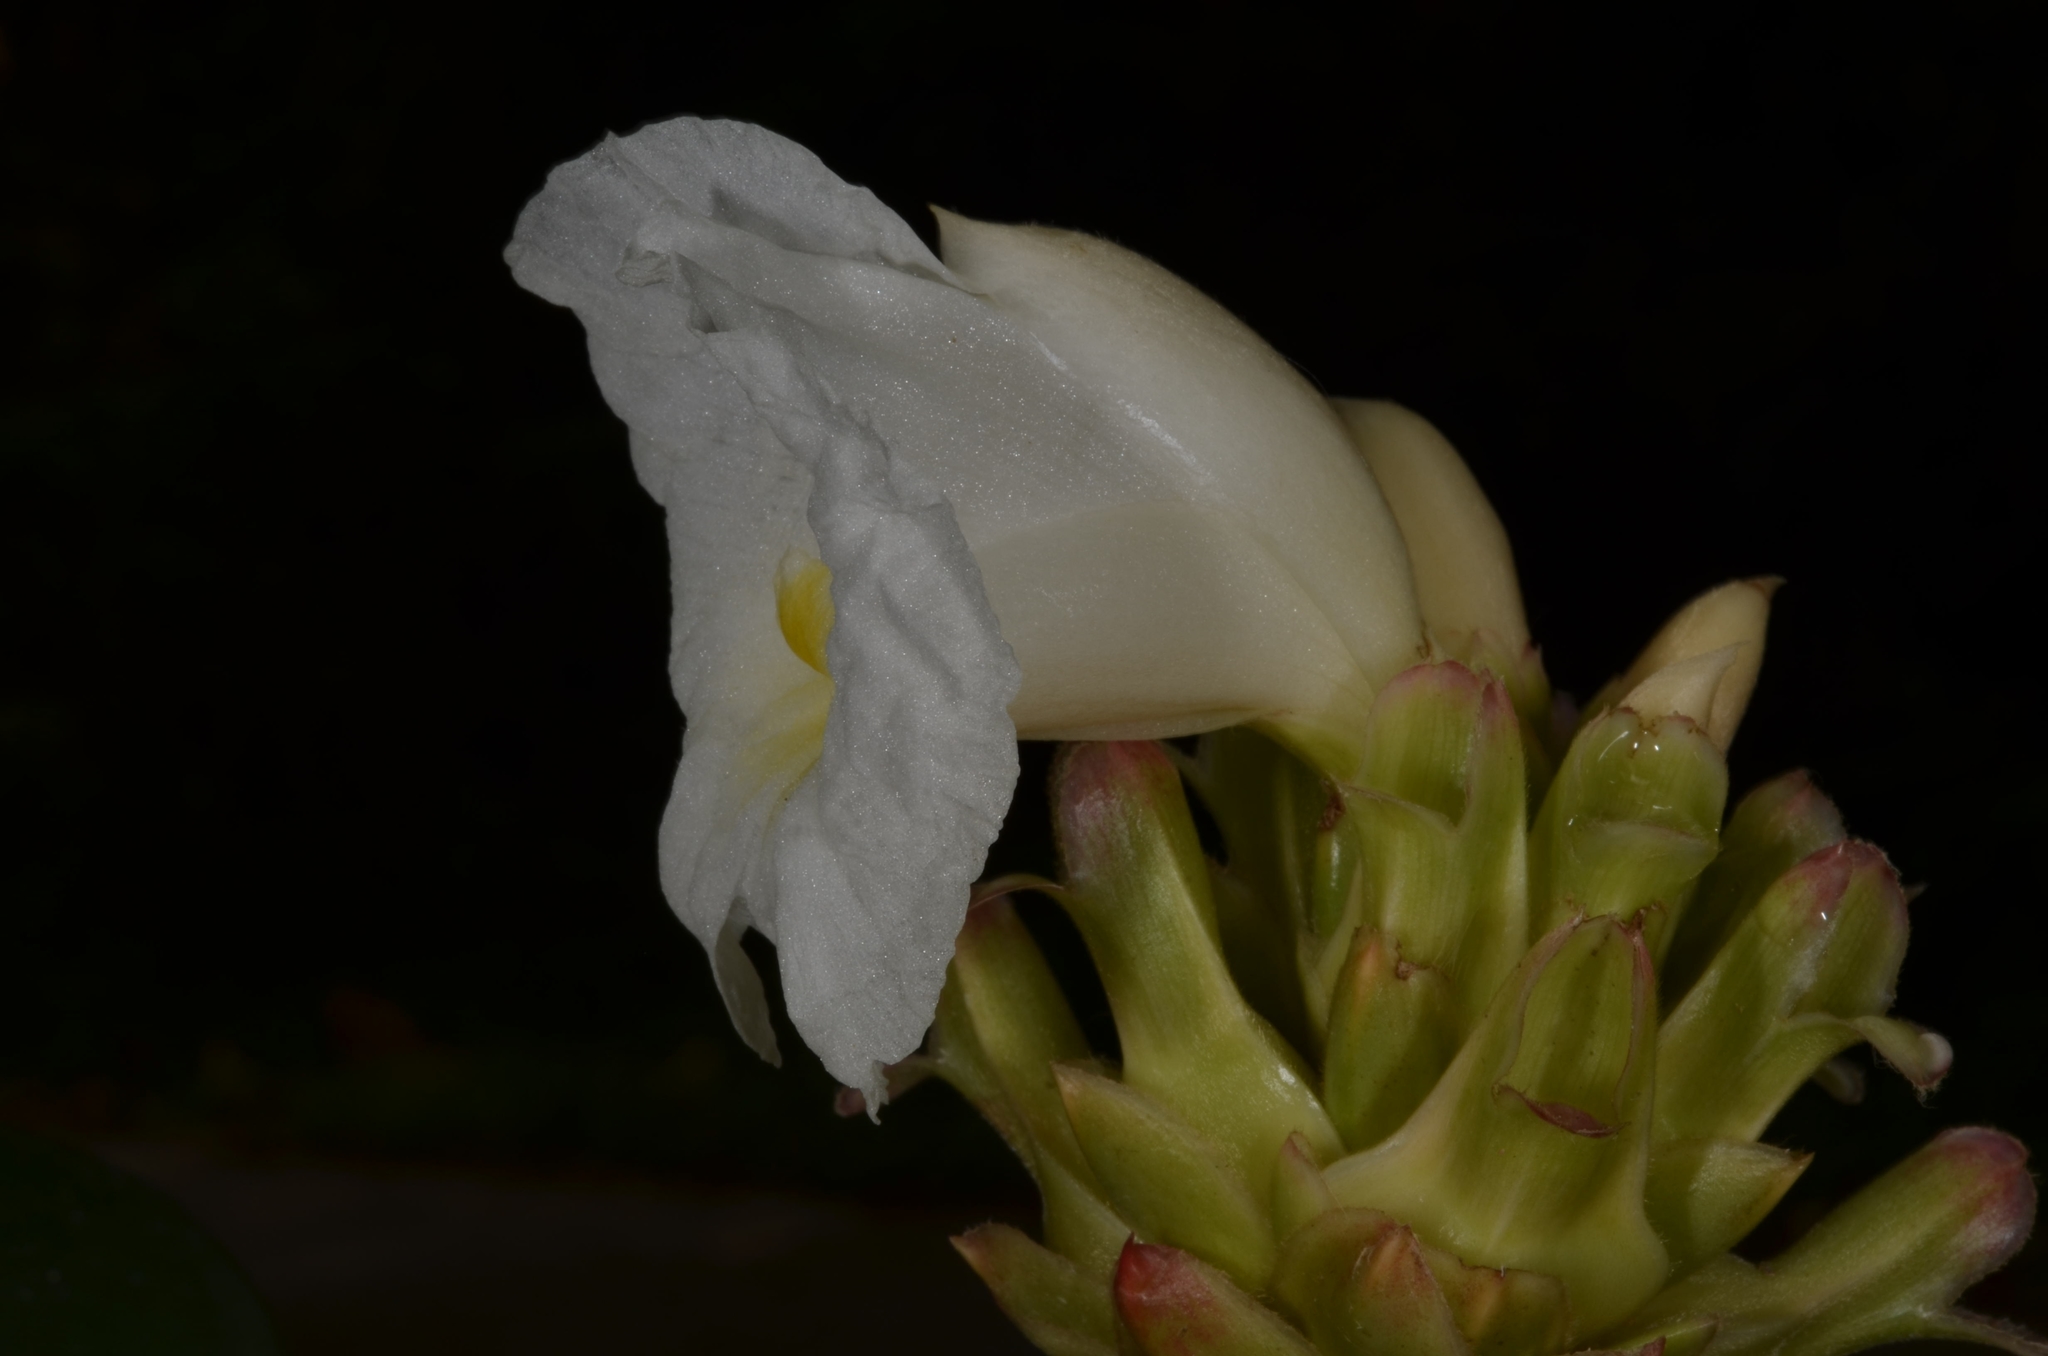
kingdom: Plantae
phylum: Tracheophyta
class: Liliopsida
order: Zingiberales
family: Costaceae
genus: Hellenia
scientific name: Hellenia speciosa
